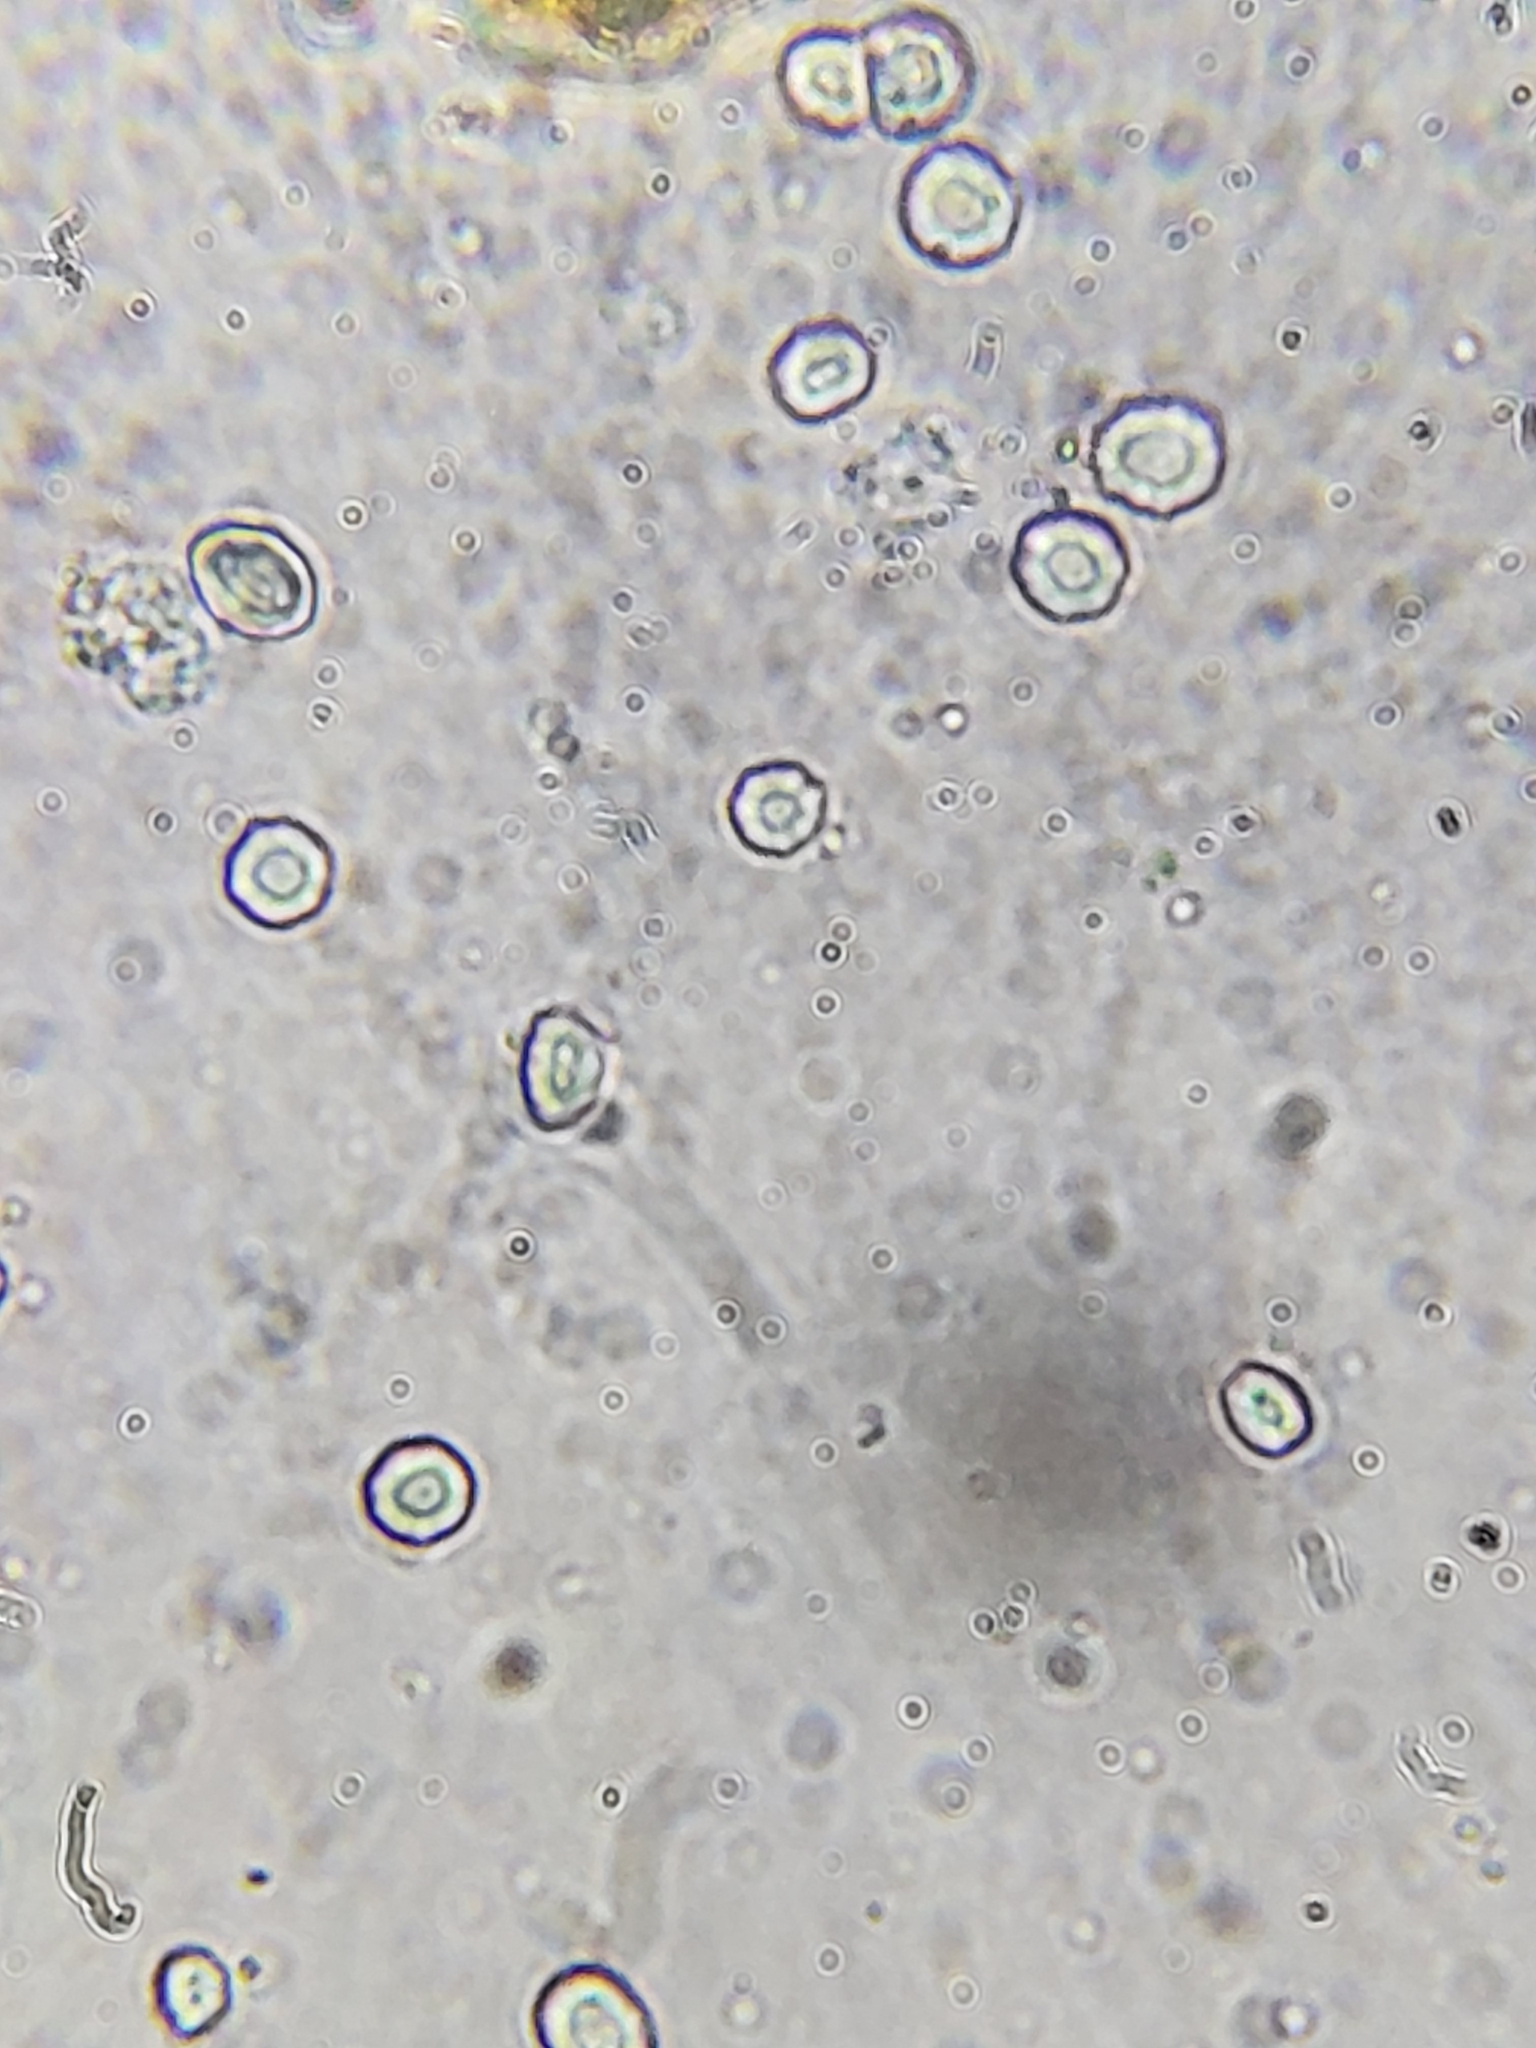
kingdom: Fungi
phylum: Basidiomycota
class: Pucciniomycetes
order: Pucciniales
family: Pucciniaceae
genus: Puccinia
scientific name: Puccinia podophylli
